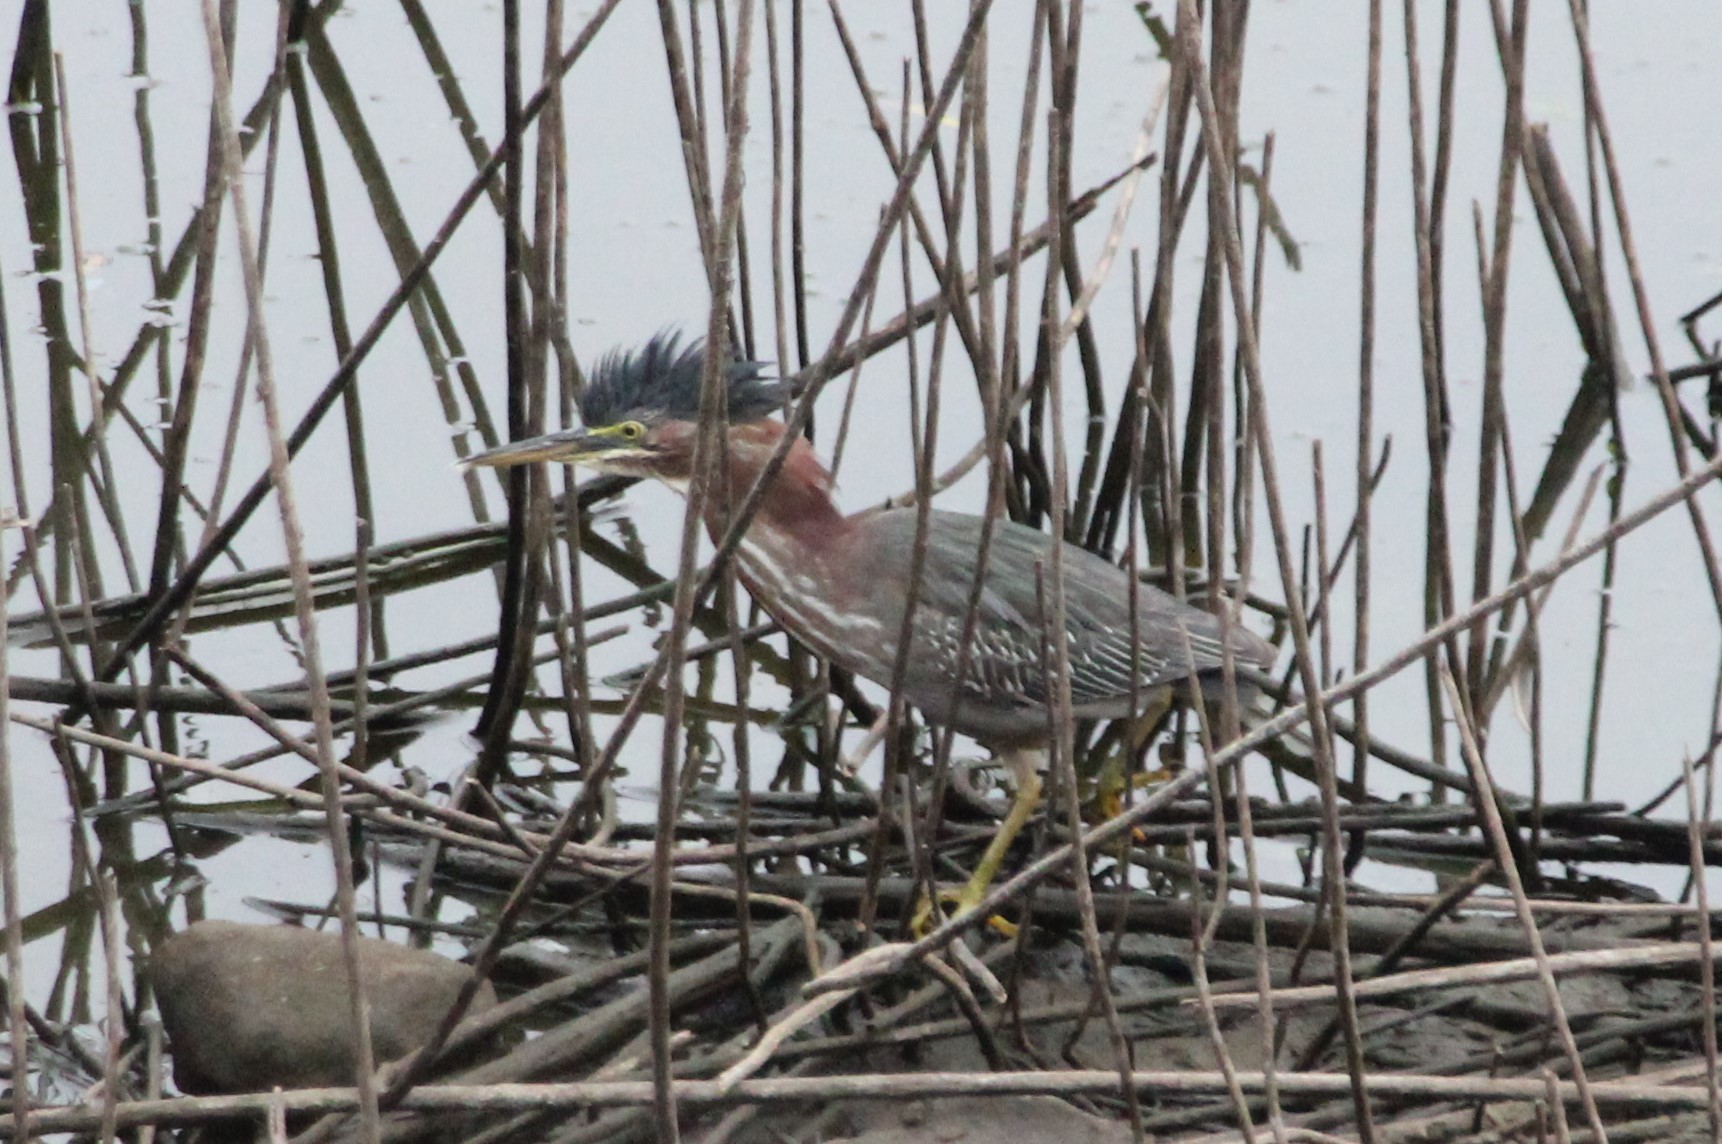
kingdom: Animalia
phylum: Chordata
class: Aves
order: Pelecaniformes
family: Ardeidae
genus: Butorides
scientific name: Butorides virescens
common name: Green heron
